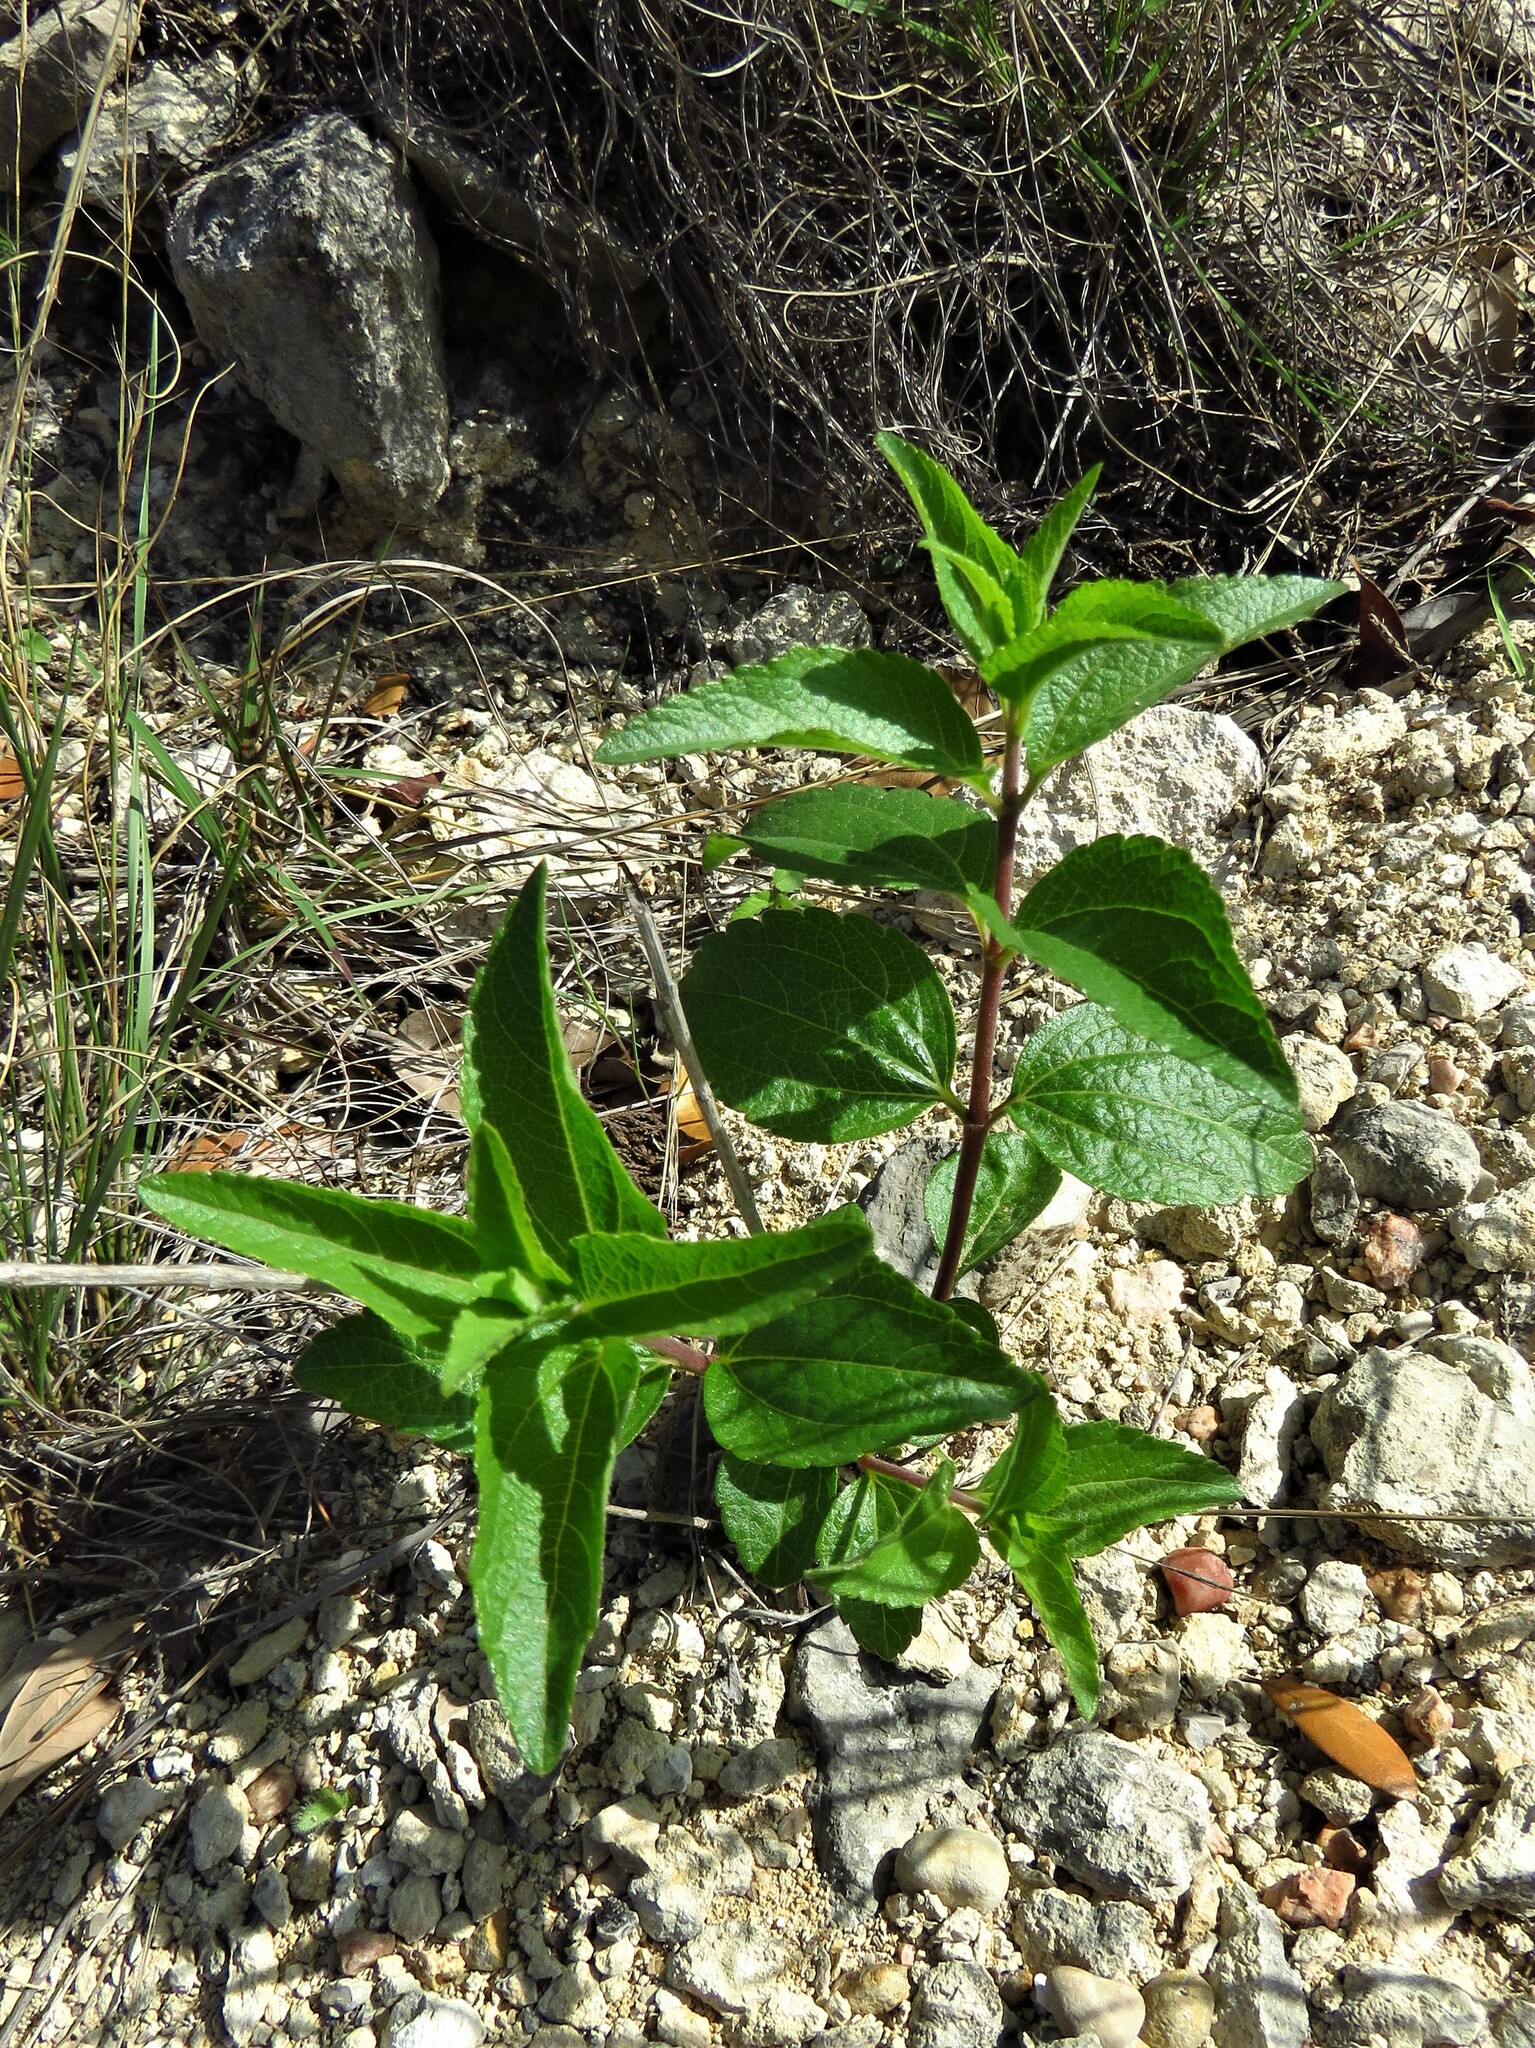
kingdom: Plantae
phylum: Tracheophyta
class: Magnoliopsida
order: Lamiales
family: Lamiaceae
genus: Callicarpa
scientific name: Callicarpa americana
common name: American beautyberry
